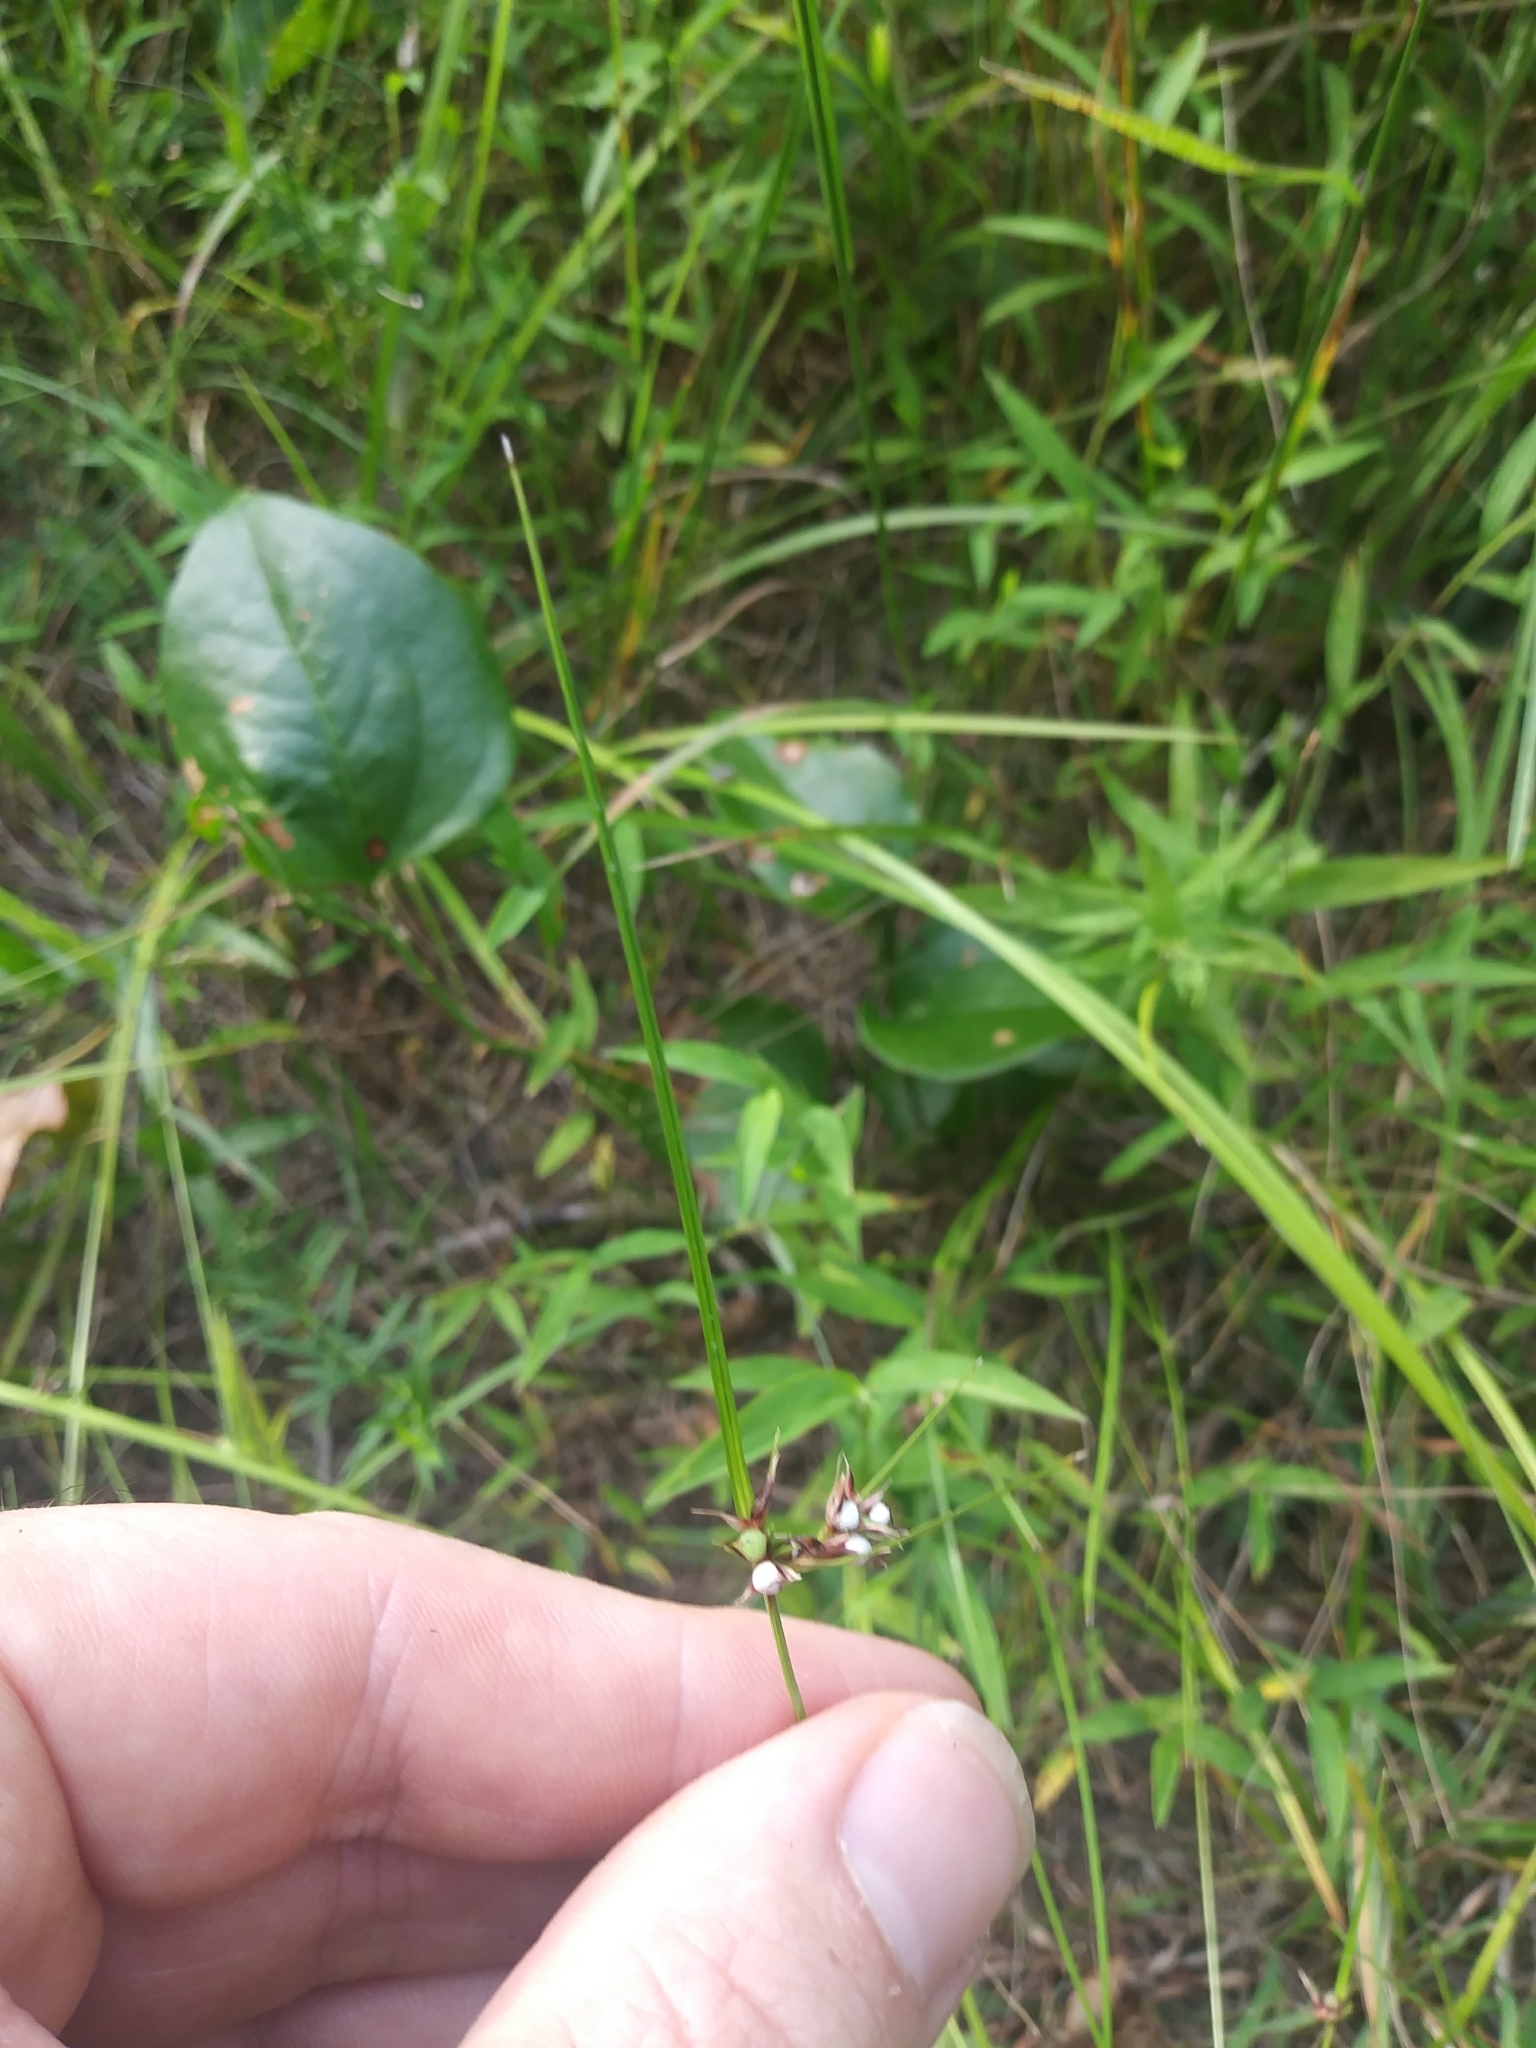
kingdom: Plantae
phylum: Tracheophyta
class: Liliopsida
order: Poales
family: Cyperaceae
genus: Scleria
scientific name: Scleria pauciflora
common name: Few-flowered nutrush
